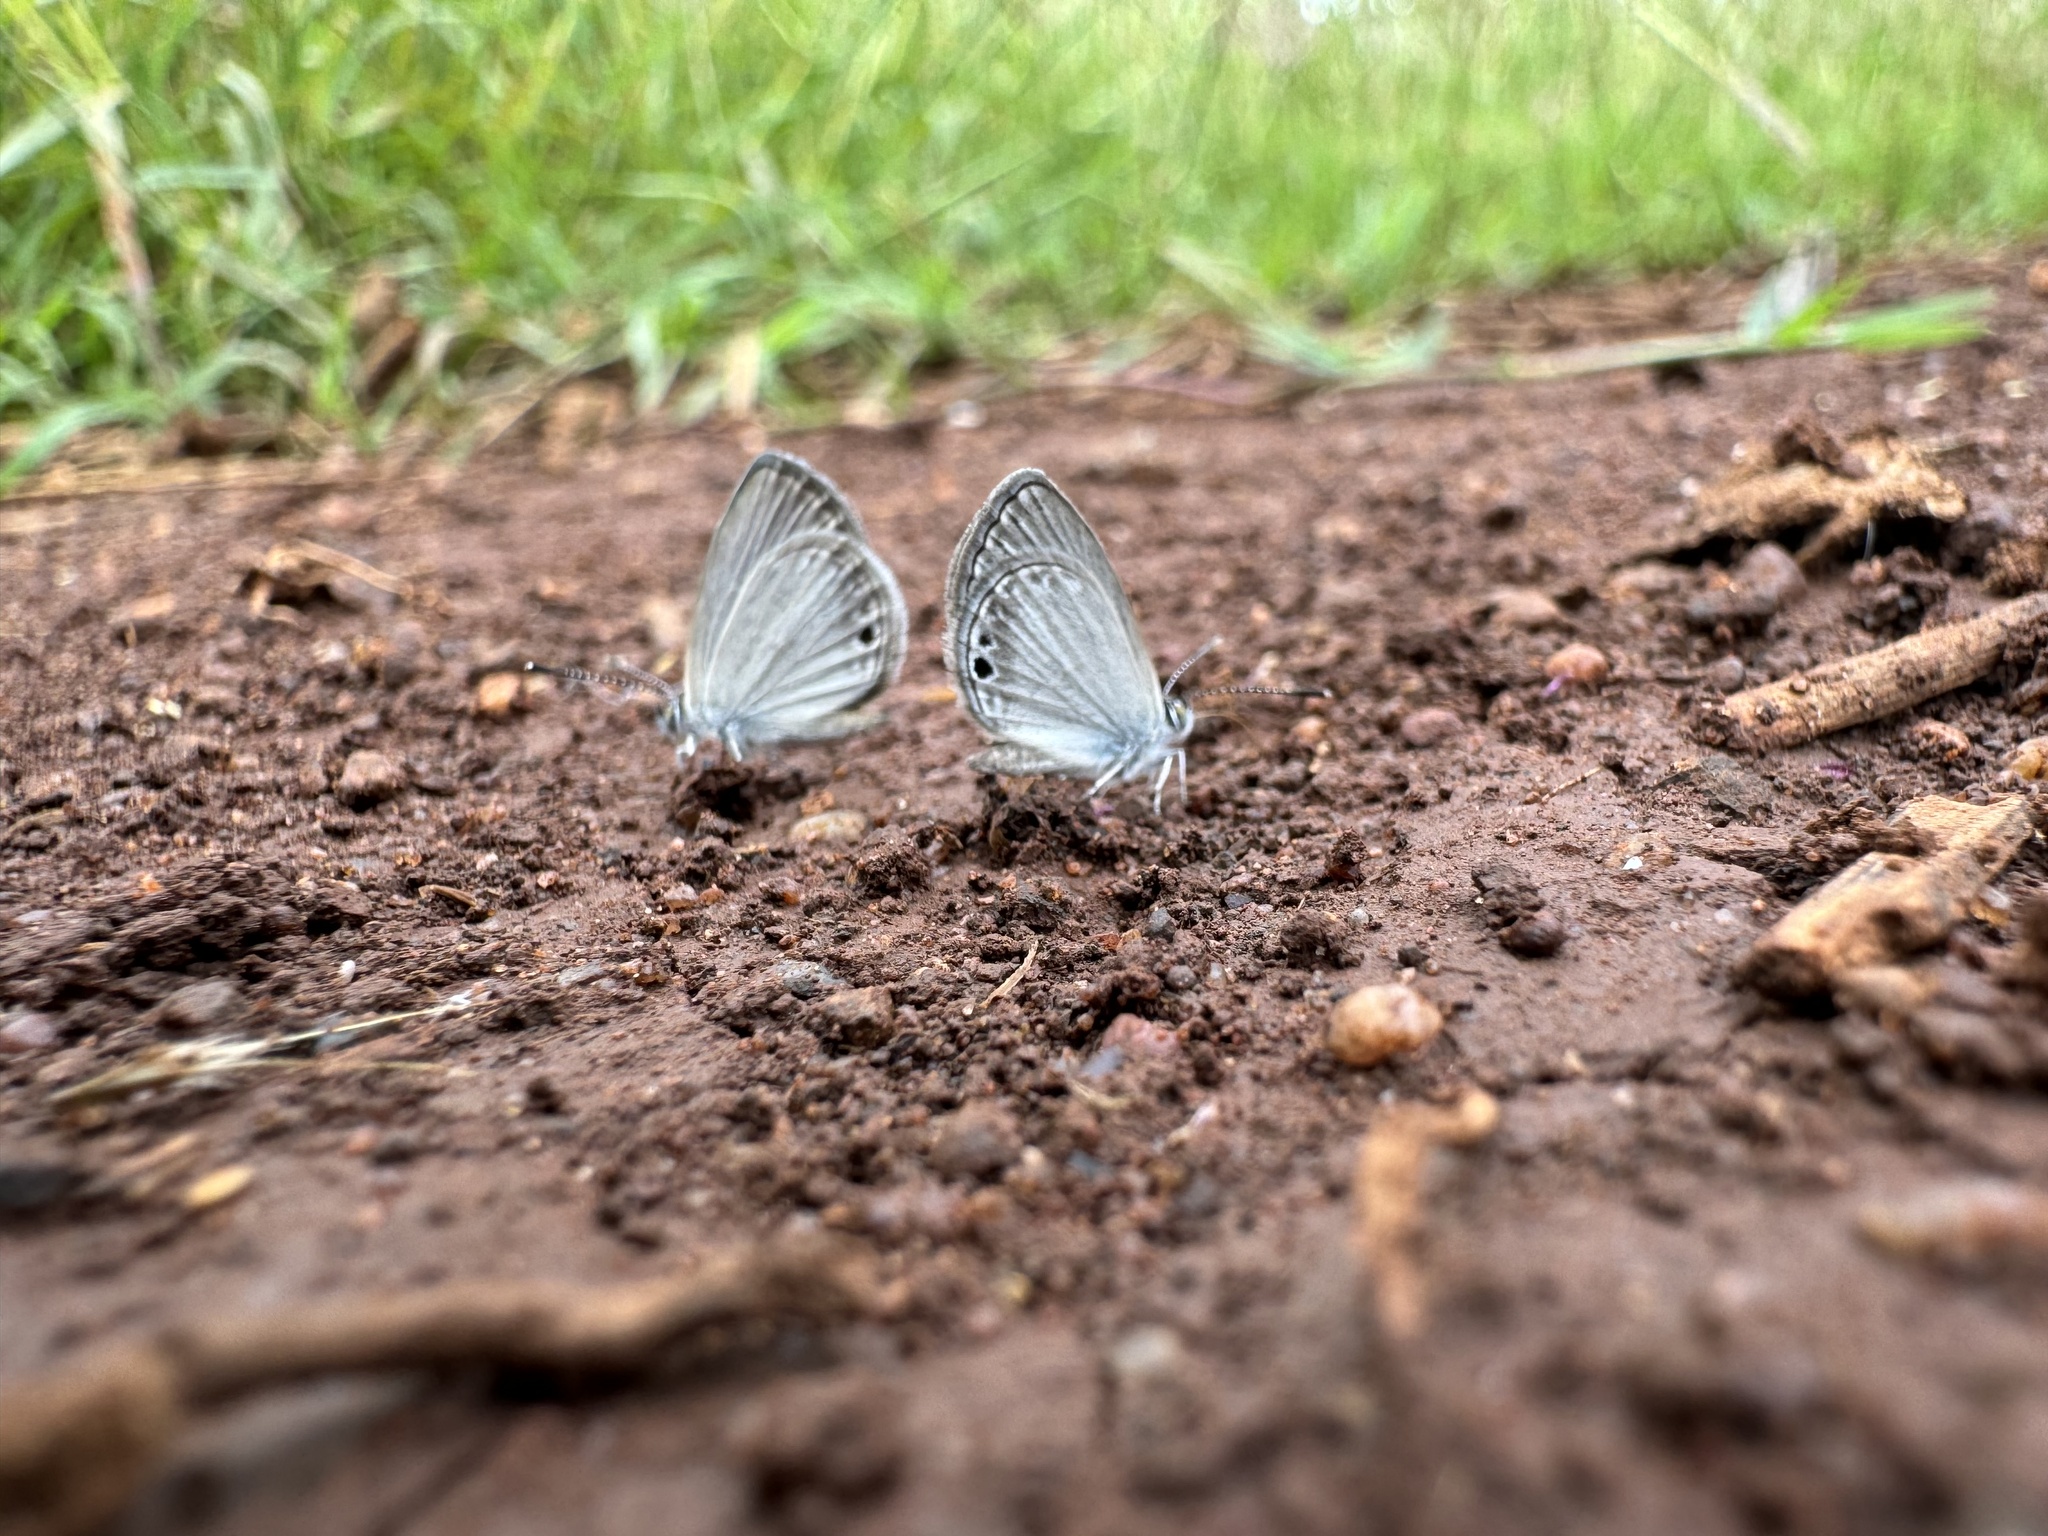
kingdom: Animalia
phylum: Arthropoda
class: Insecta
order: Lepidoptera
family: Lycaenidae
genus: Cupido
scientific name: Cupido nisa
